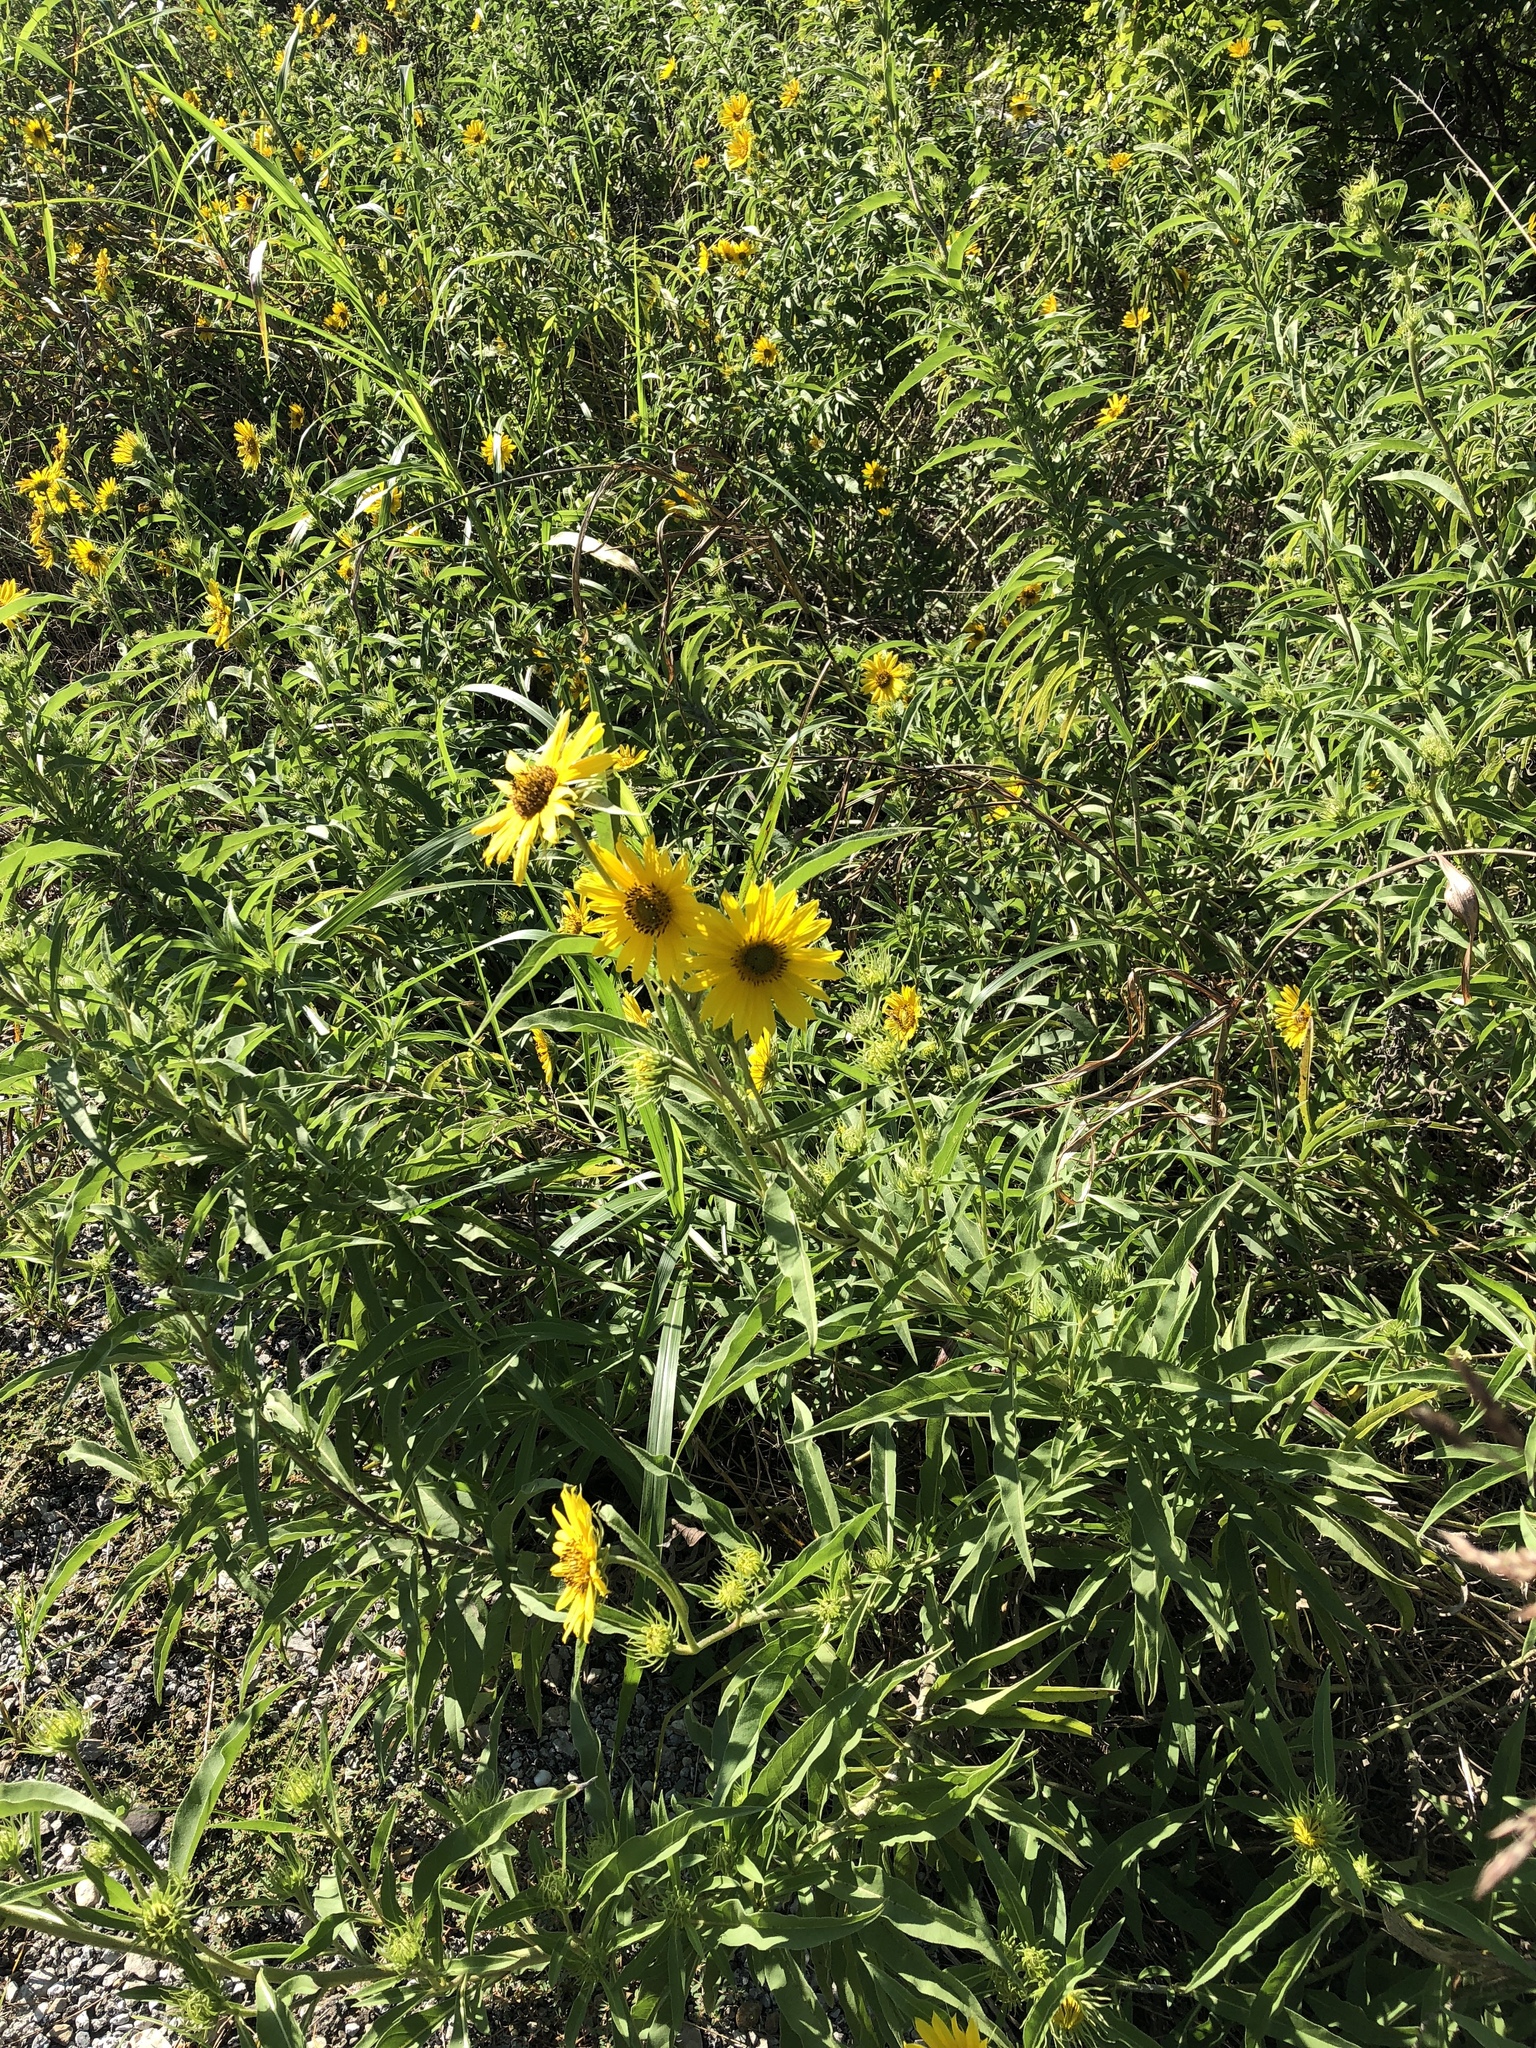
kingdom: Plantae
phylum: Tracheophyta
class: Magnoliopsida
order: Asterales
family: Asteraceae
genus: Helianthus
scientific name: Helianthus maximiliani
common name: Maximilian's sunflower
